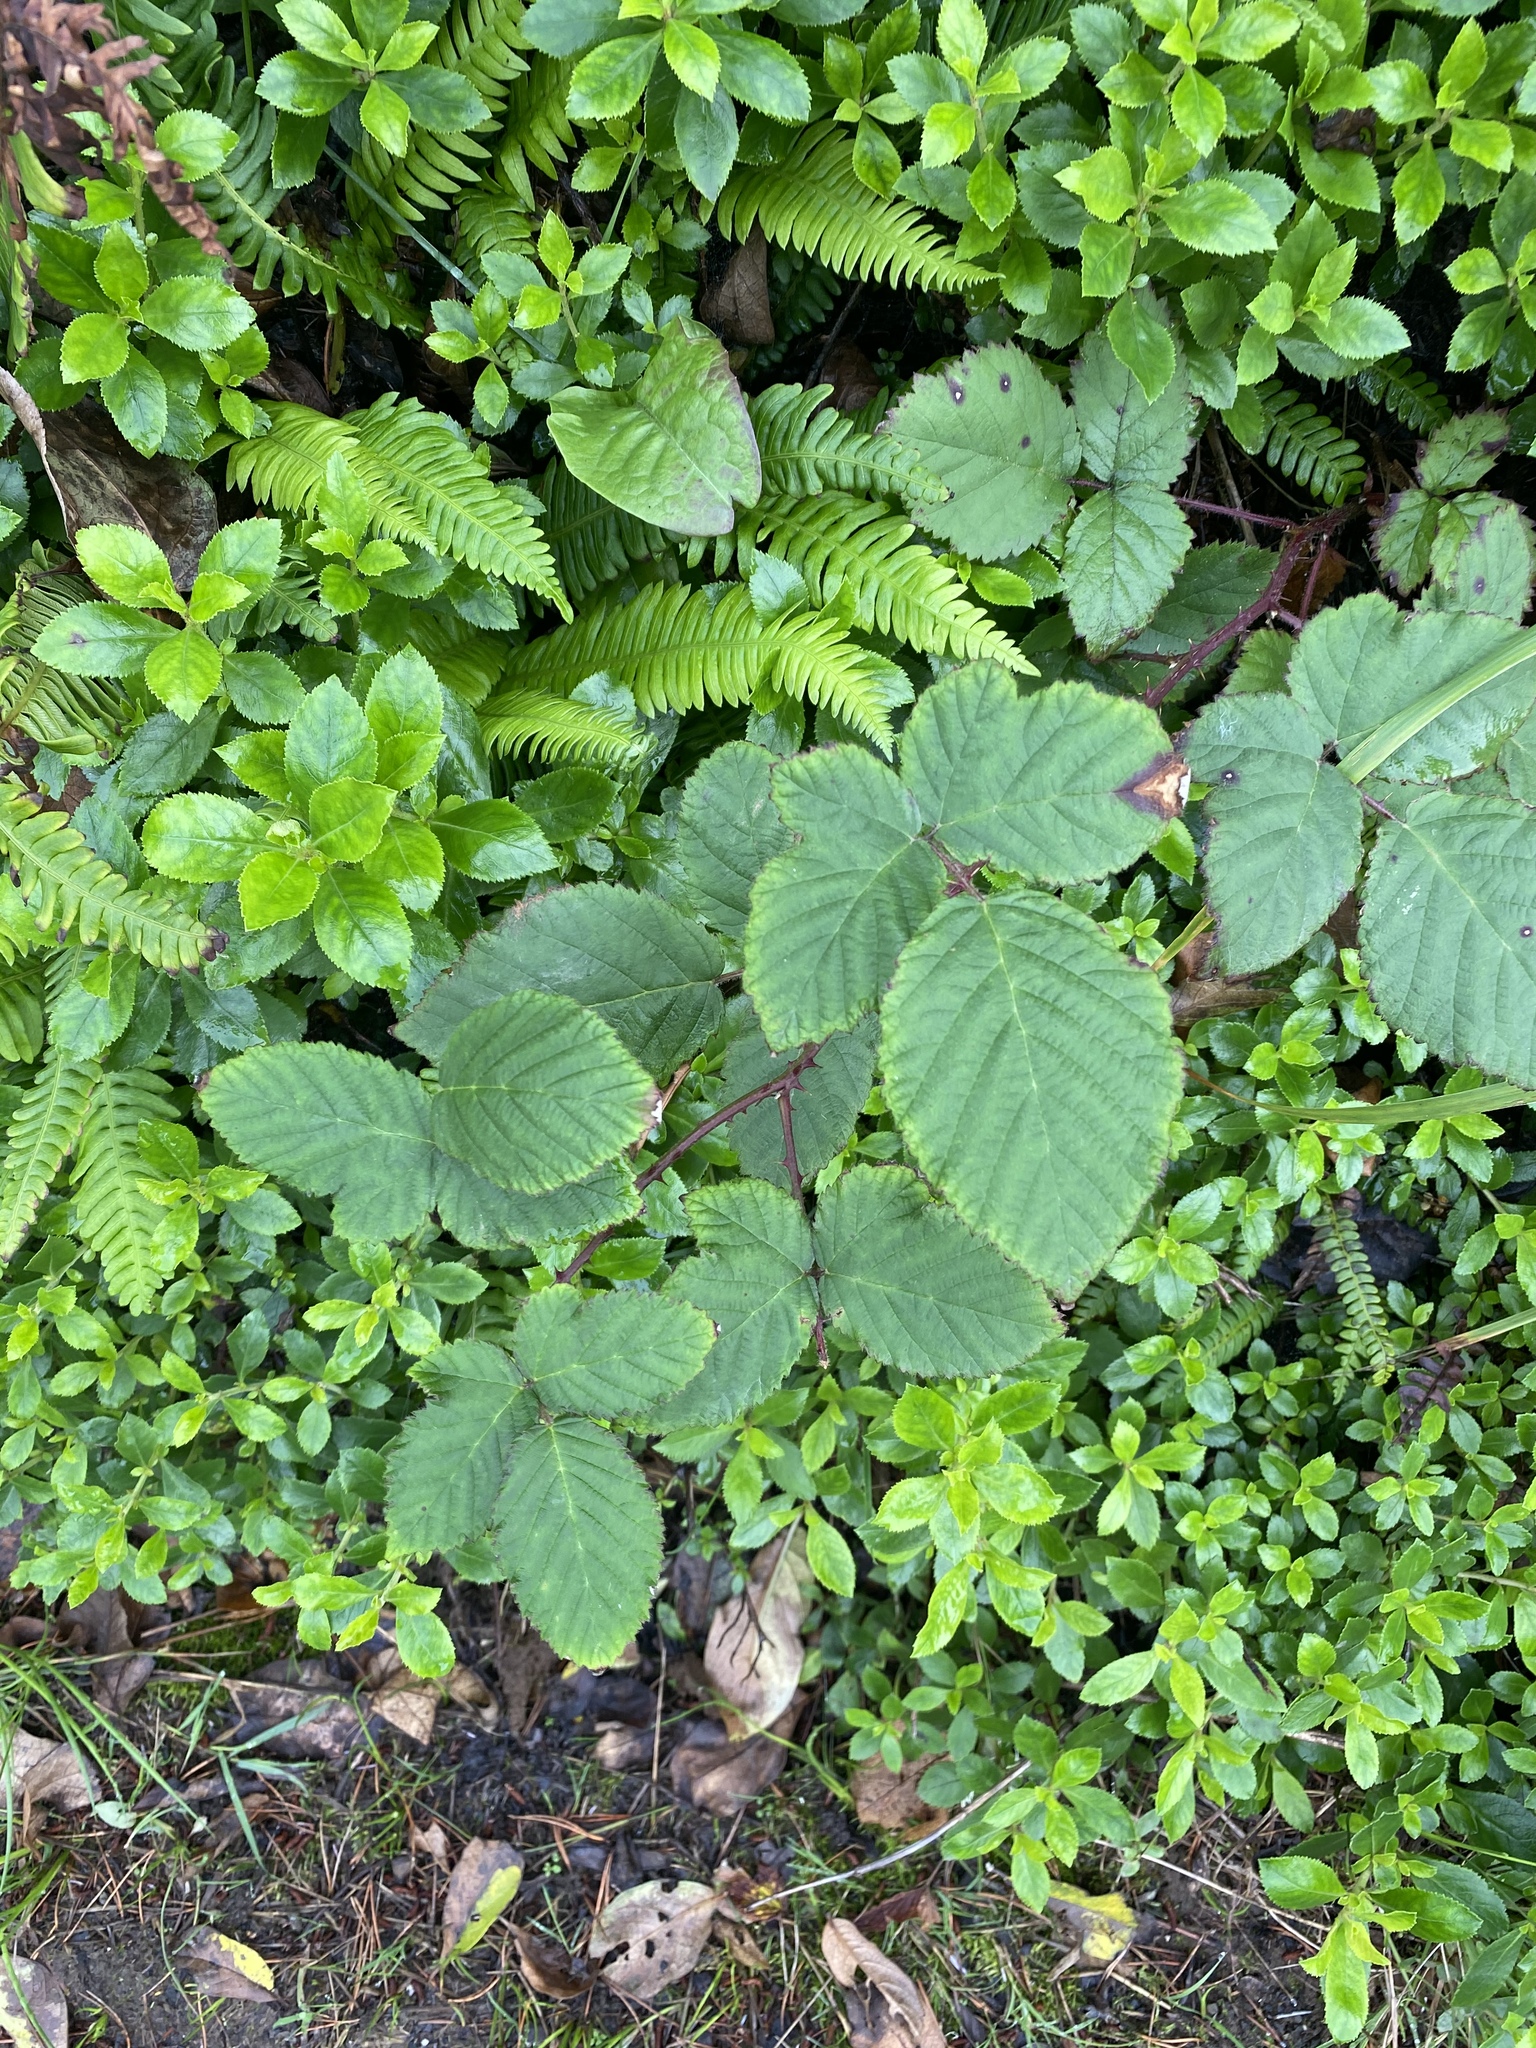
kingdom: Plantae
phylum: Tracheophyta
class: Magnoliopsida
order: Rosales
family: Rosaceae
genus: Rubus
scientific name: Rubus bifrons
